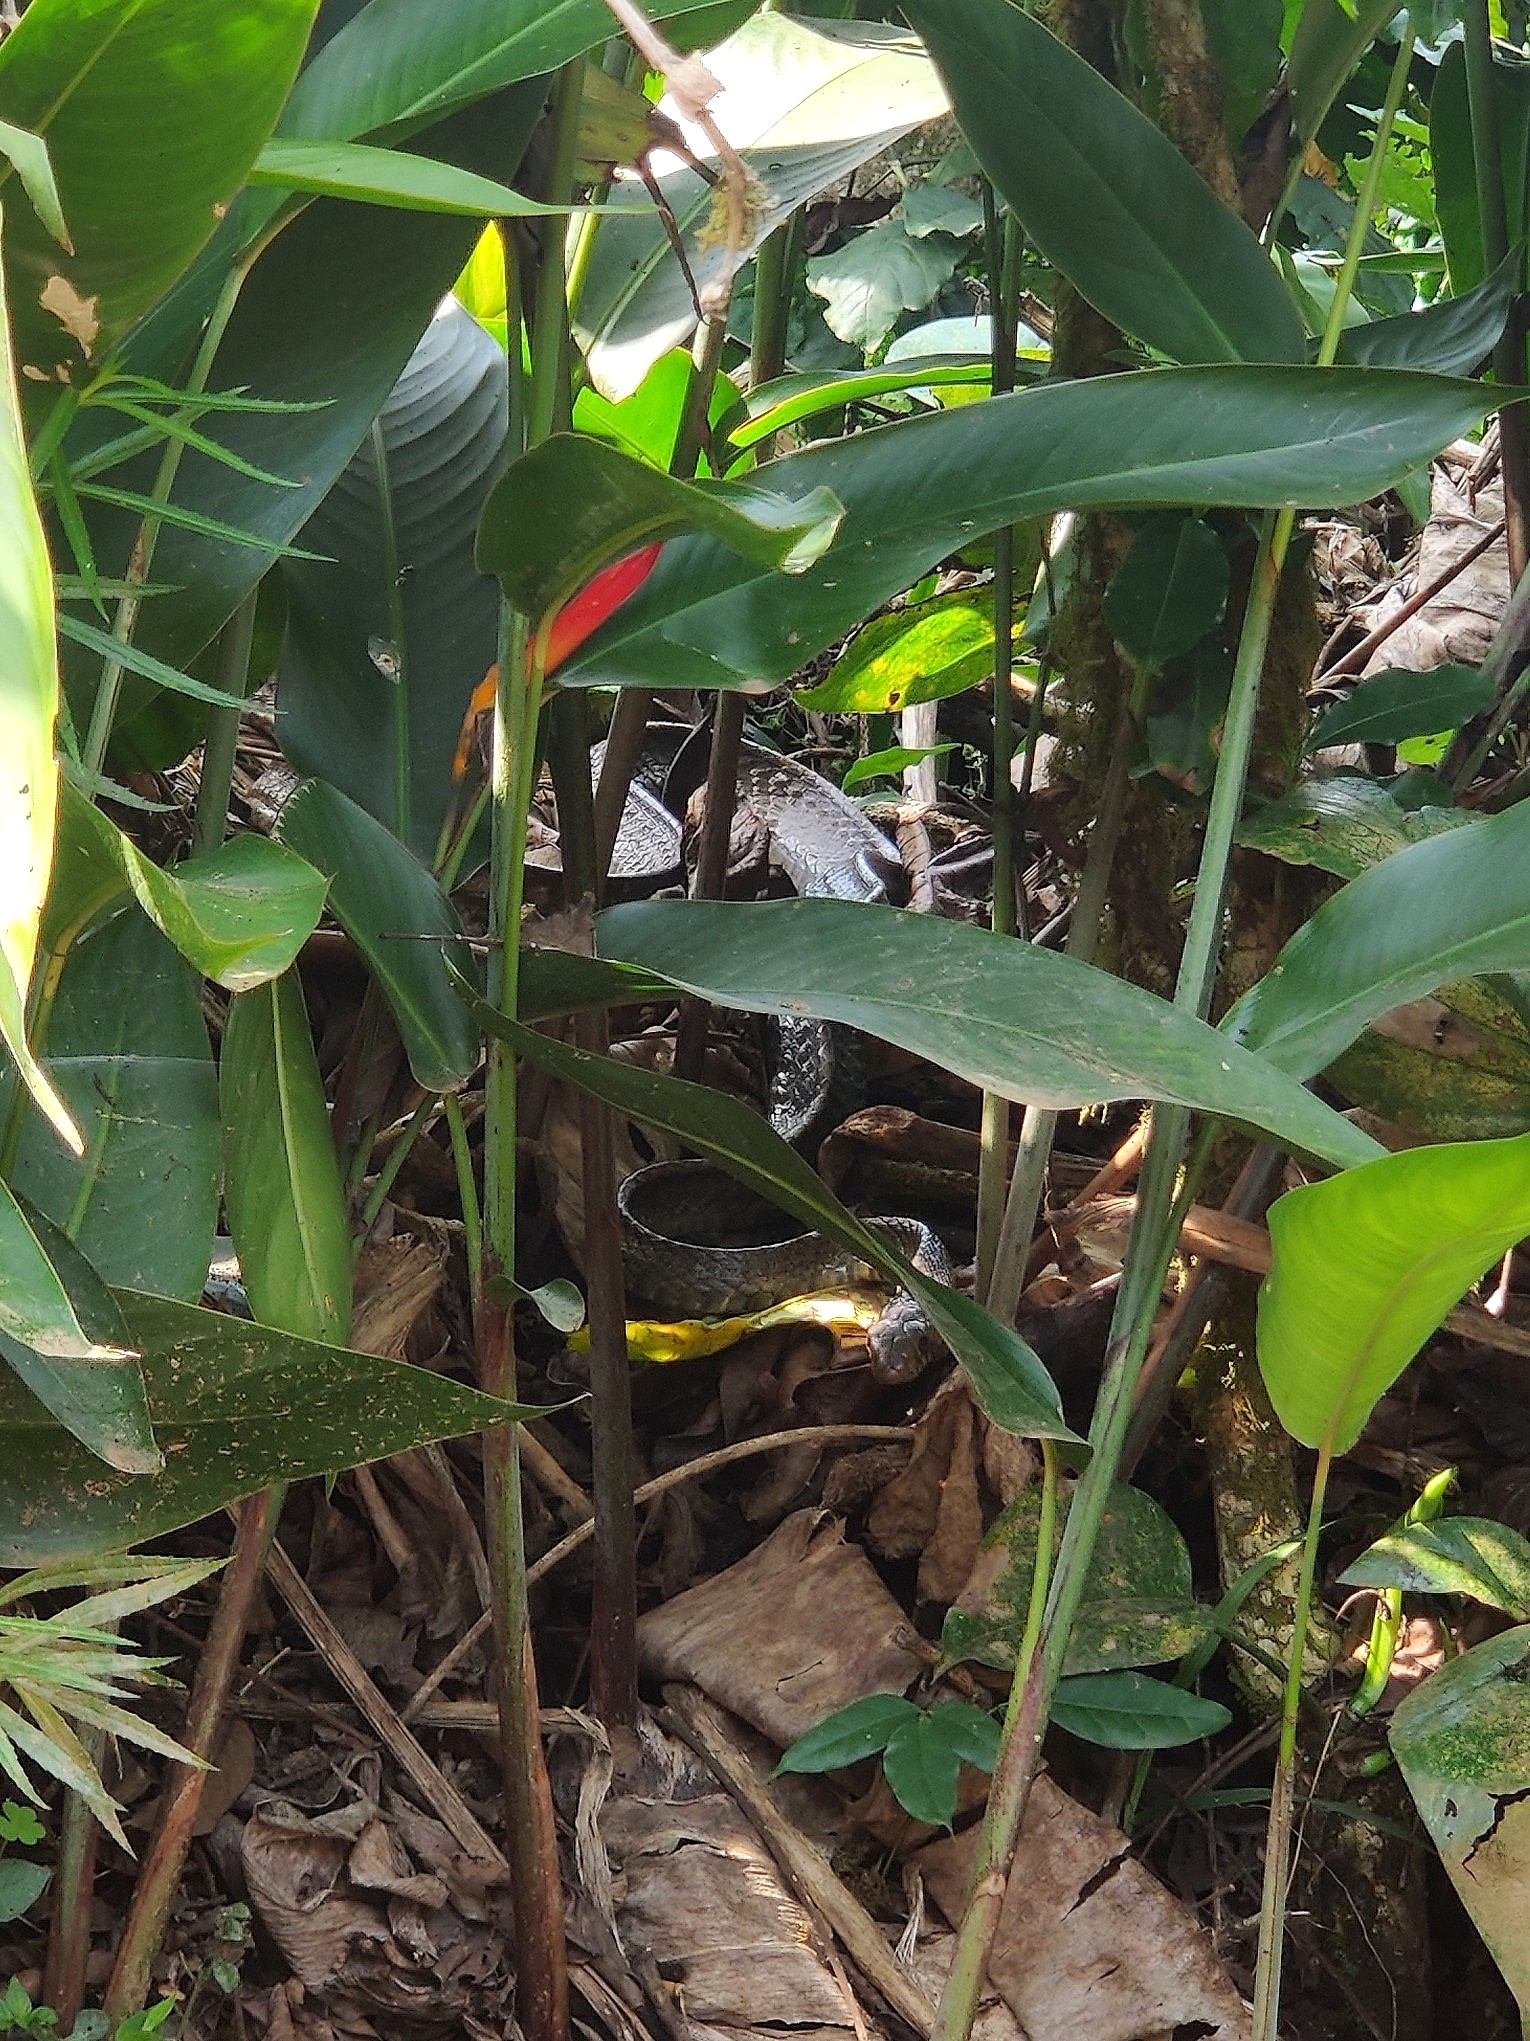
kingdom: Animalia
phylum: Chordata
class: Squamata
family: Colubridae
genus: Ptyas
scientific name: Ptyas mucosa
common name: Oriental ratsnake
